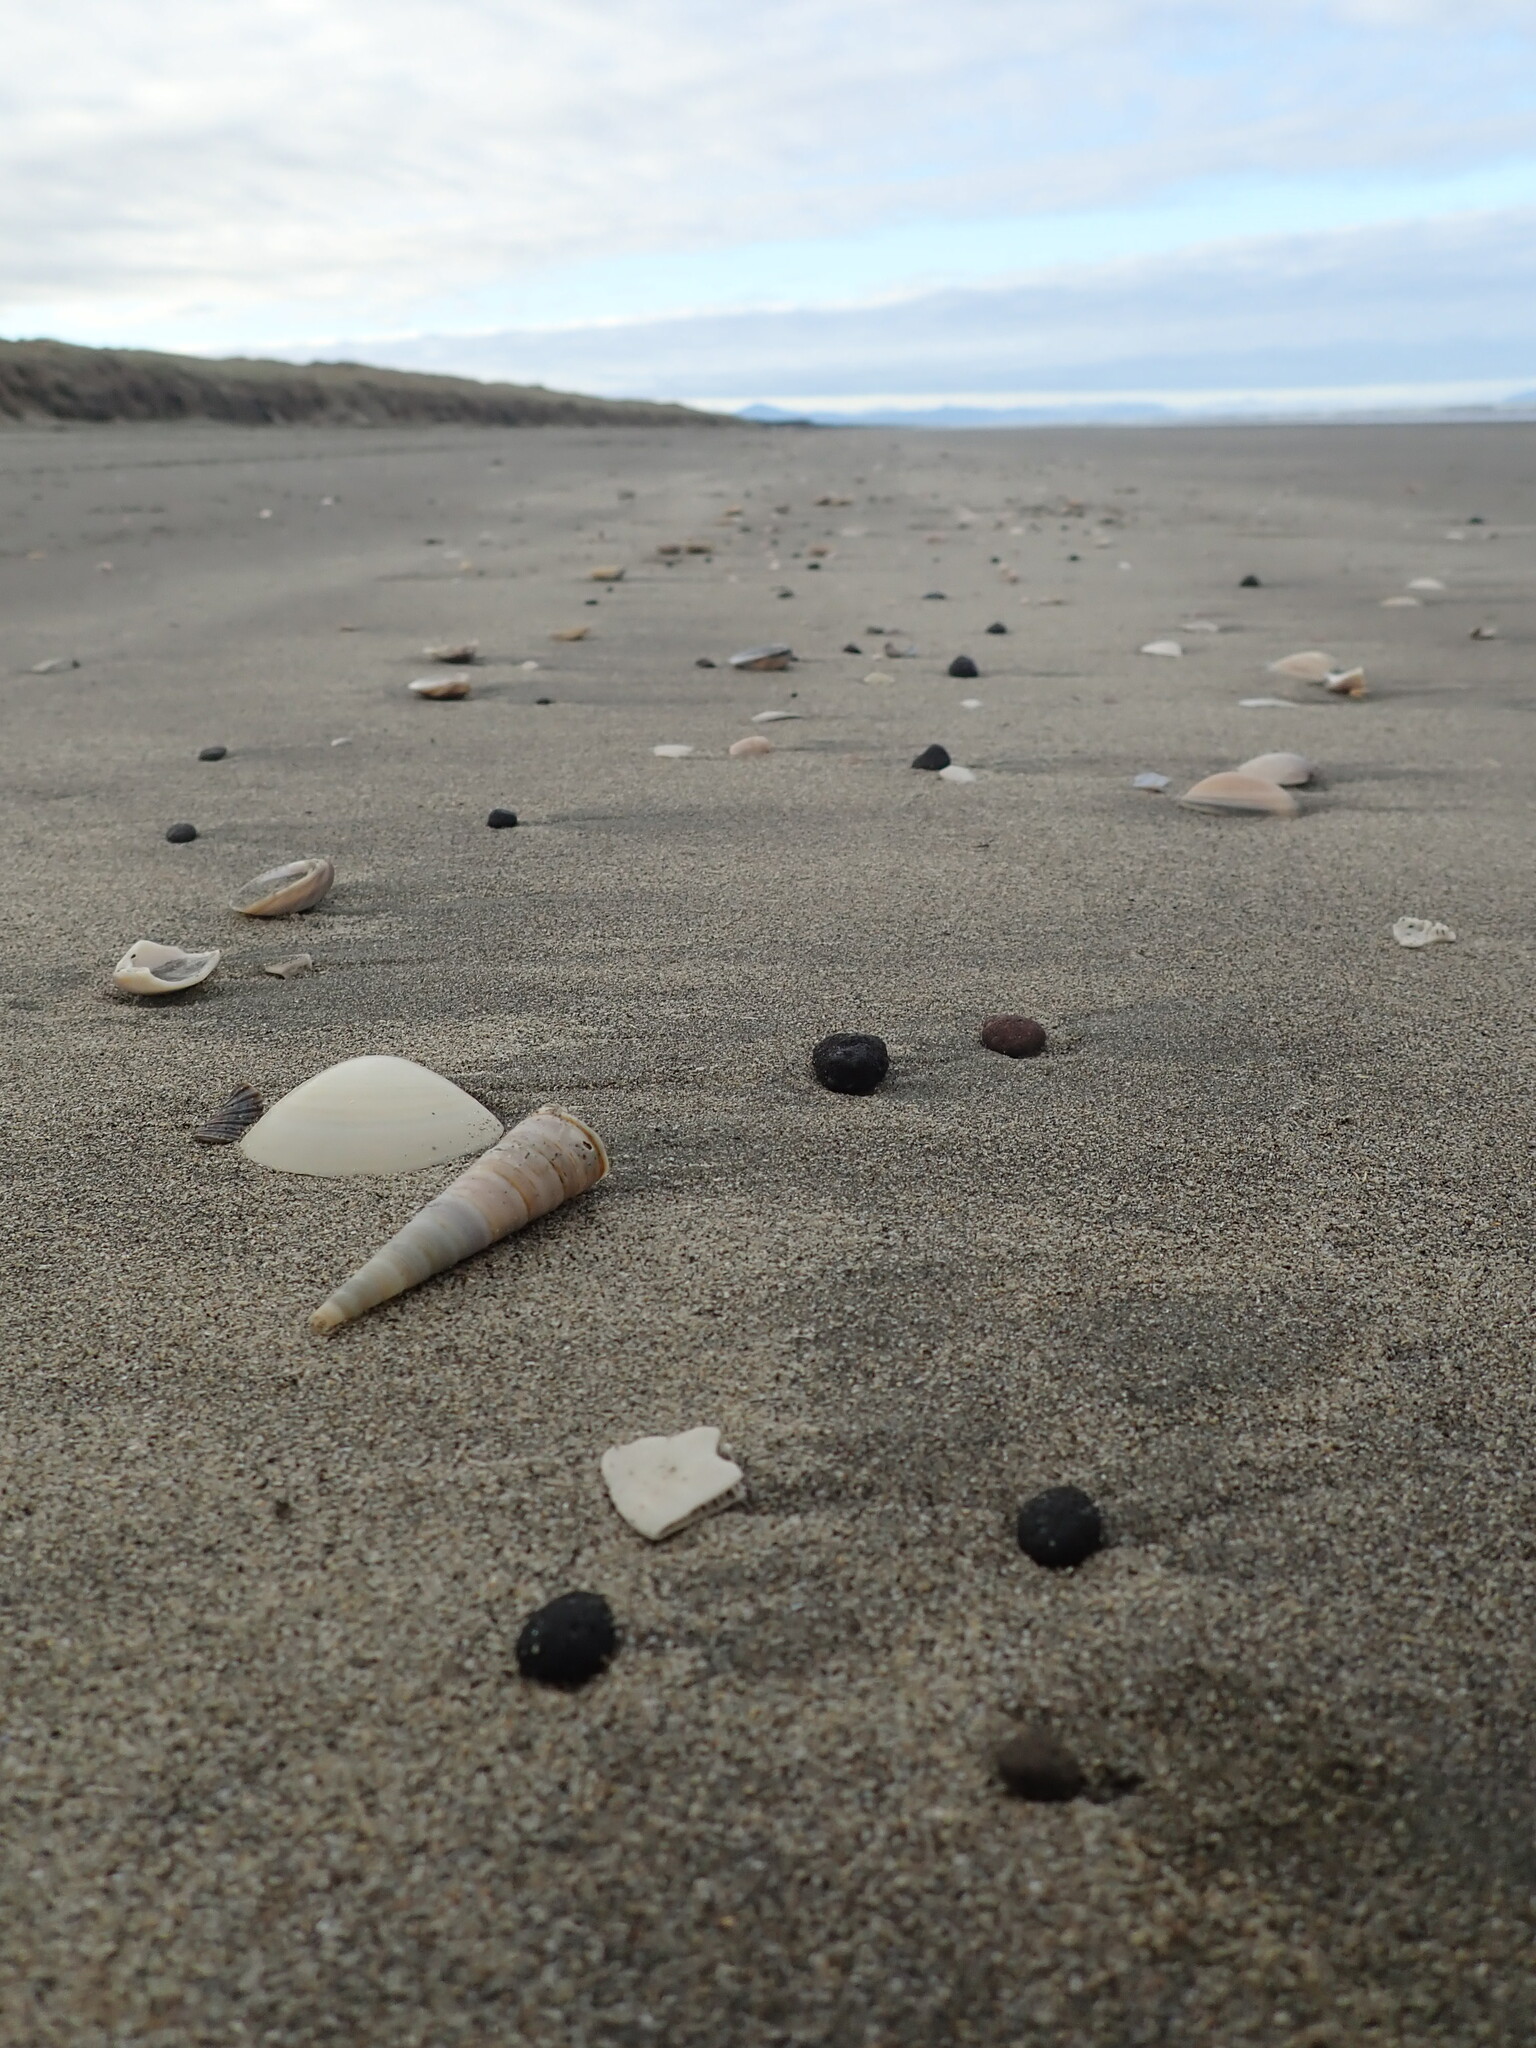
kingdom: Animalia
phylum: Mollusca
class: Gastropoda
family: Turritellidae
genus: Maoricolpus
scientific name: Maoricolpus roseus
